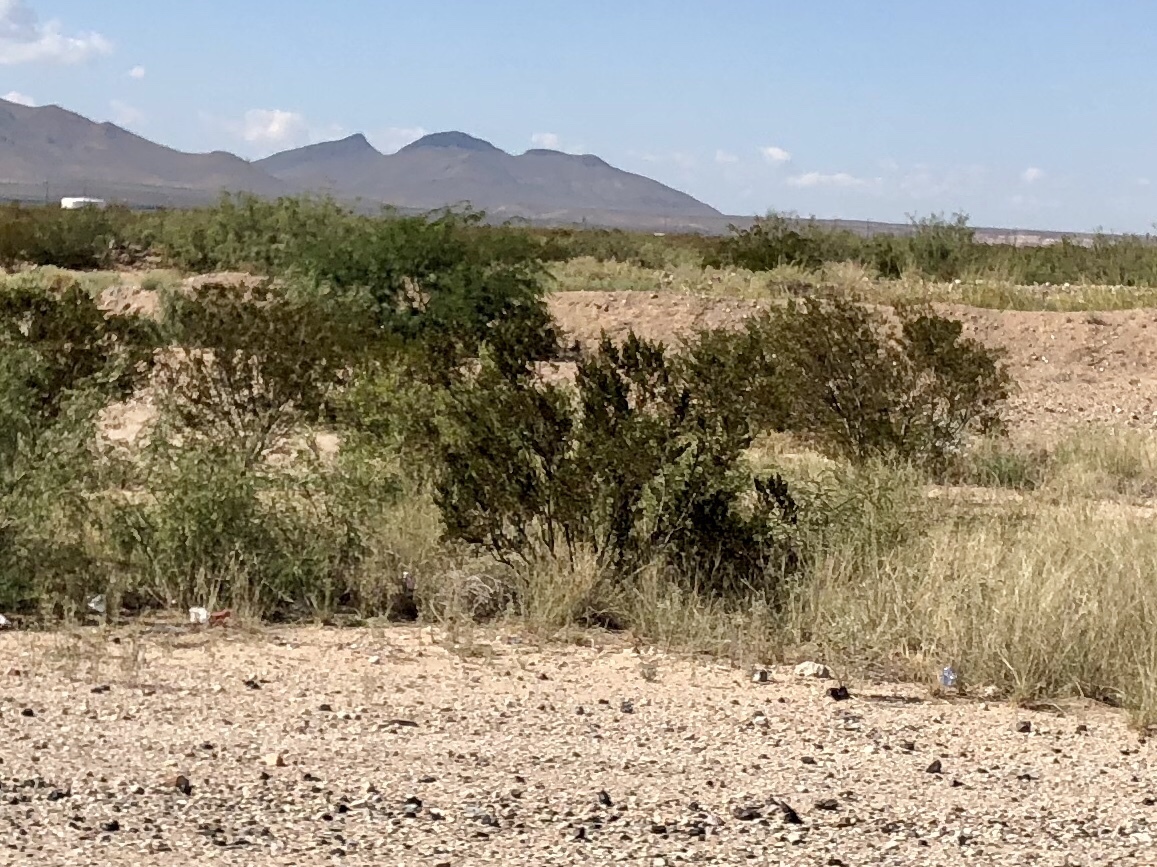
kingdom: Plantae
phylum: Tracheophyta
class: Magnoliopsida
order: Zygophyllales
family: Zygophyllaceae
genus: Larrea
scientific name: Larrea tridentata
